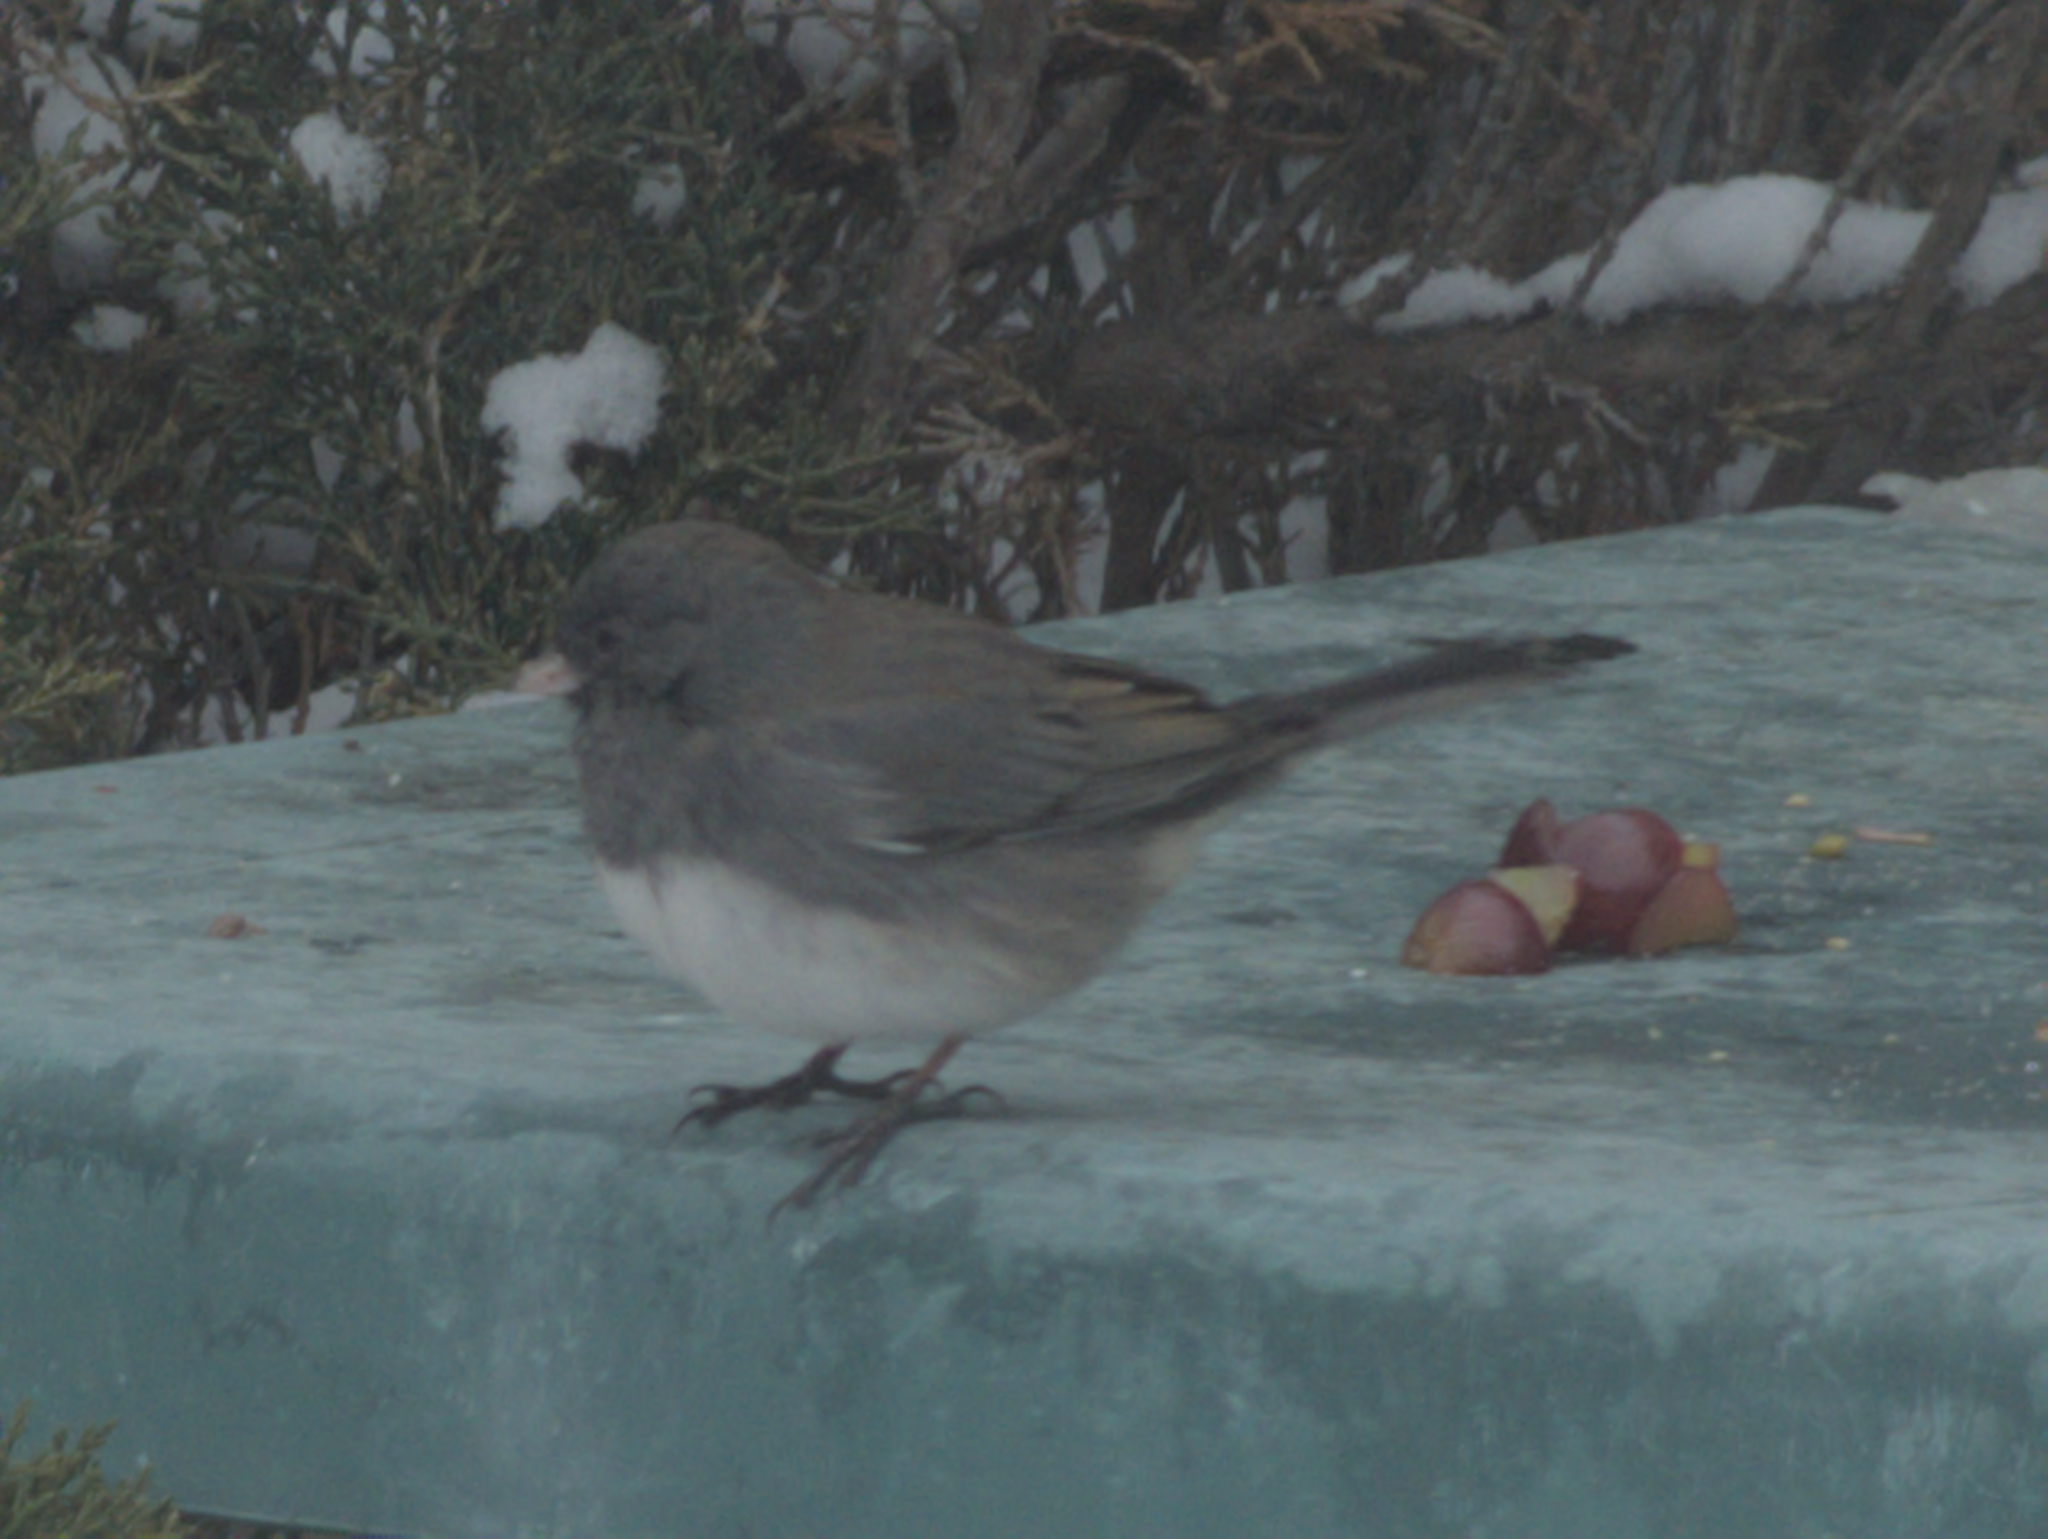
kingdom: Animalia
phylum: Chordata
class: Aves
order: Passeriformes
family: Passerellidae
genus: Junco
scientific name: Junco hyemalis
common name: Dark-eyed junco
